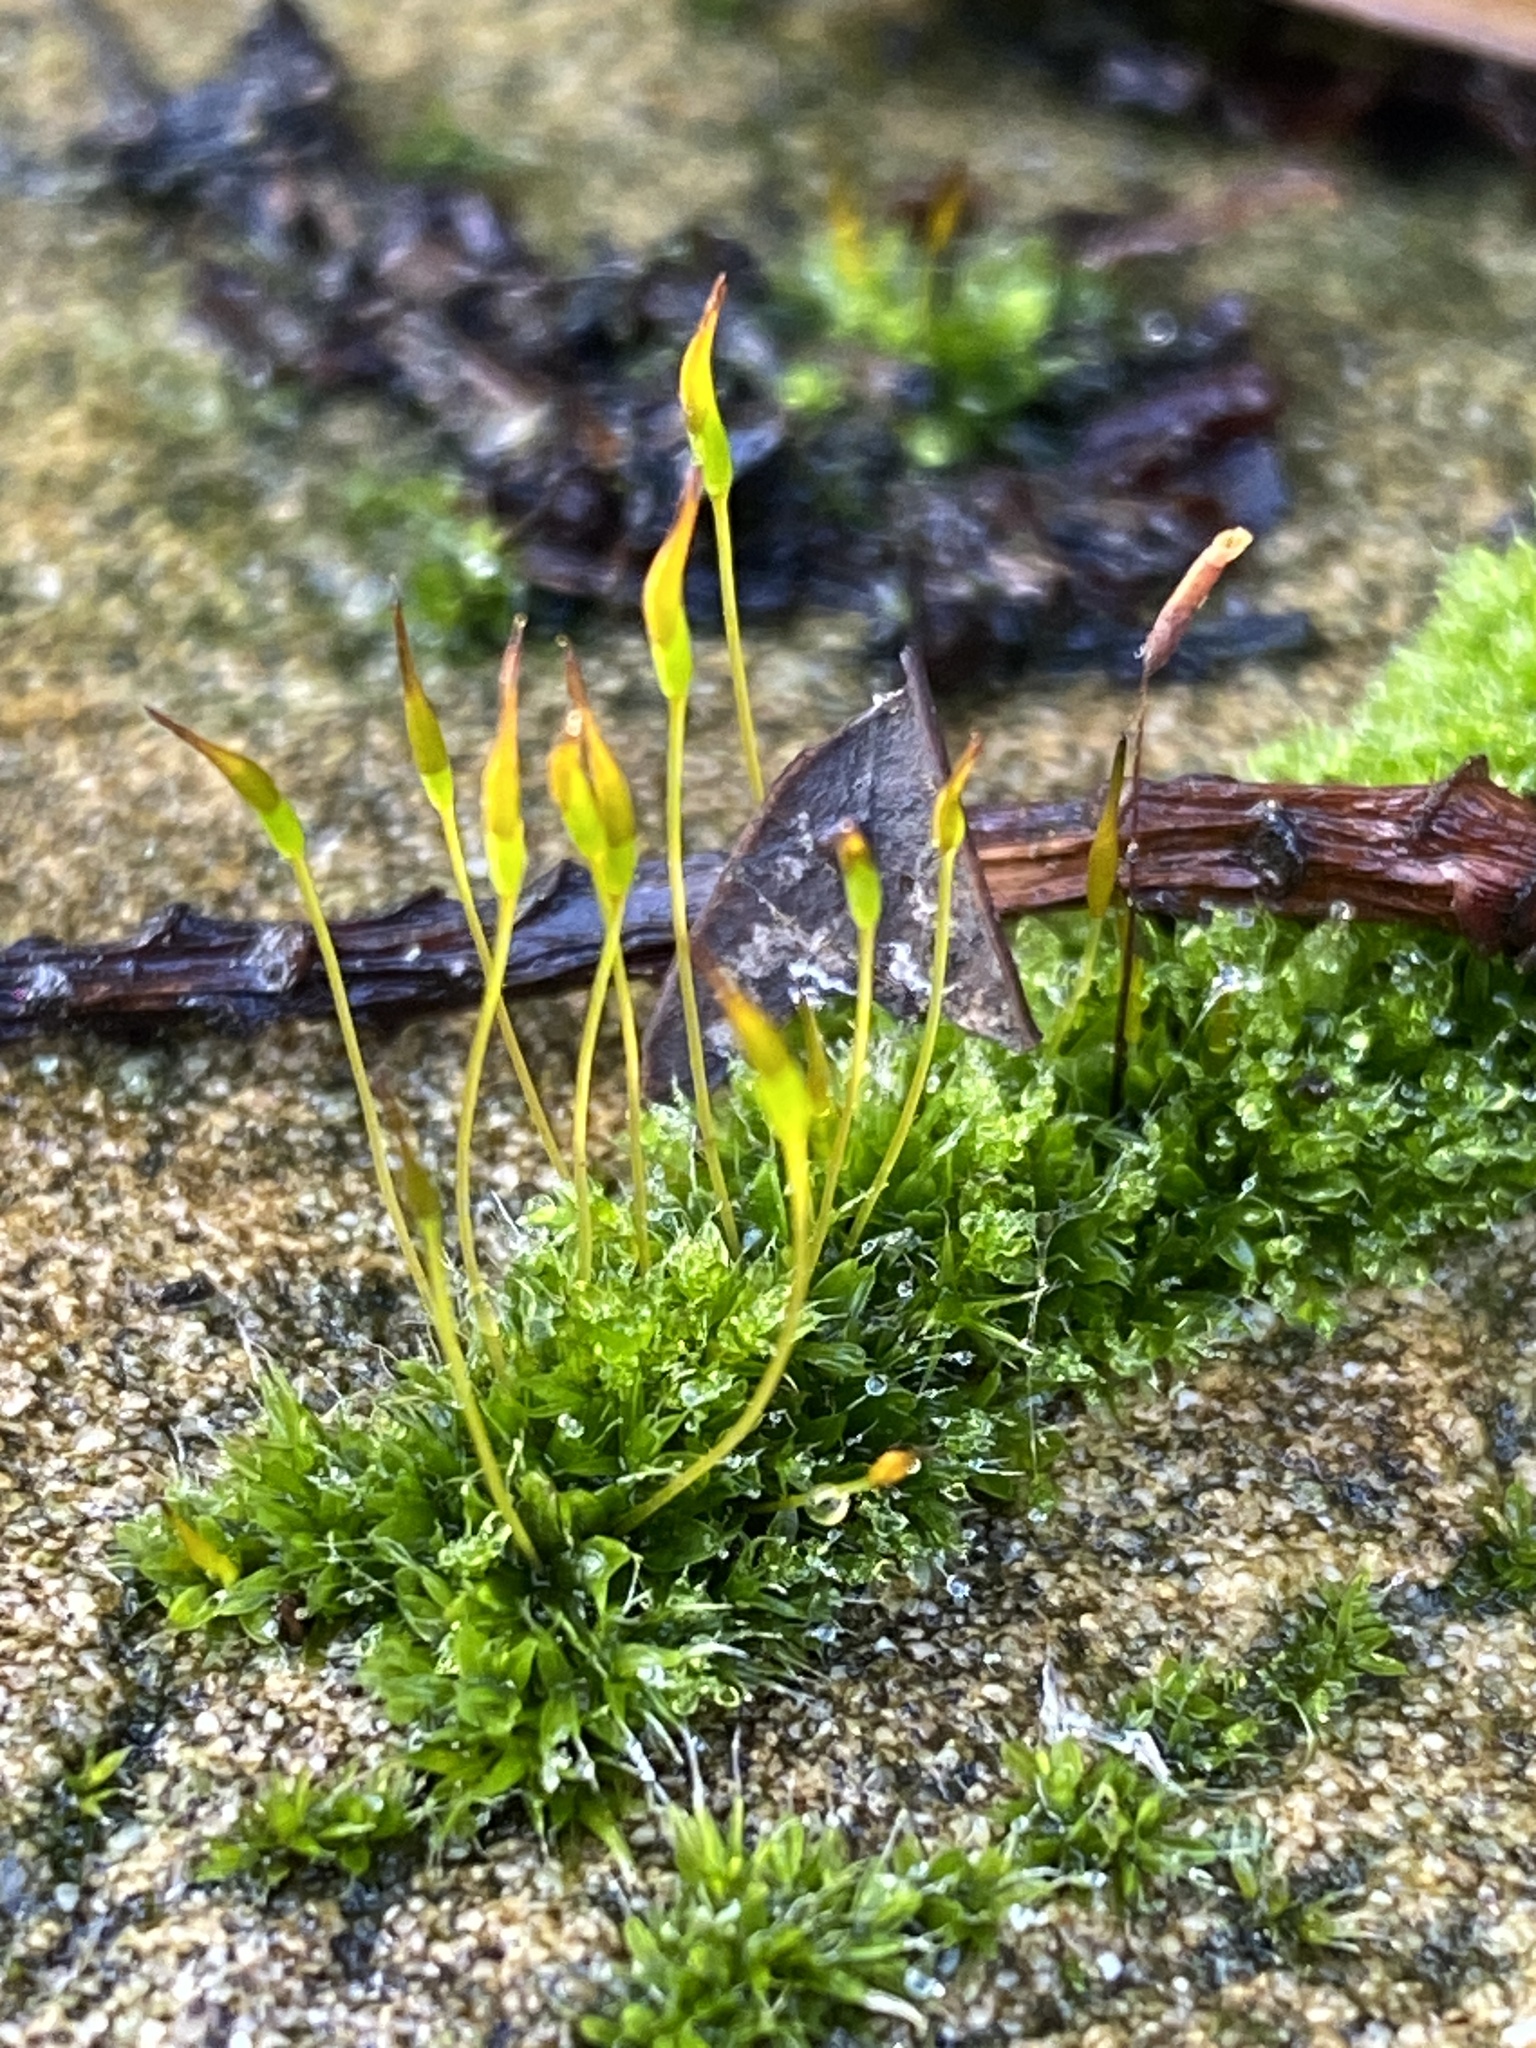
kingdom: Plantae
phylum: Bryophyta
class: Bryopsida
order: Pottiales
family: Pottiaceae
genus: Tortula
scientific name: Tortula muralis
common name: Wall screw-moss
